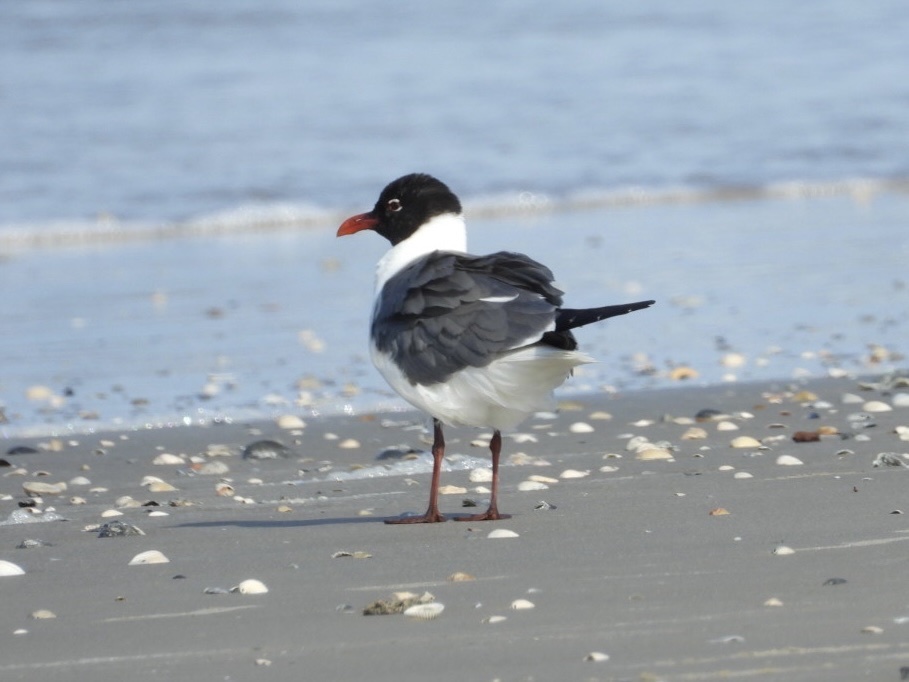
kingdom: Animalia
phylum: Chordata
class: Aves
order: Charadriiformes
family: Laridae
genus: Leucophaeus
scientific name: Leucophaeus atricilla
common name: Laughing gull
